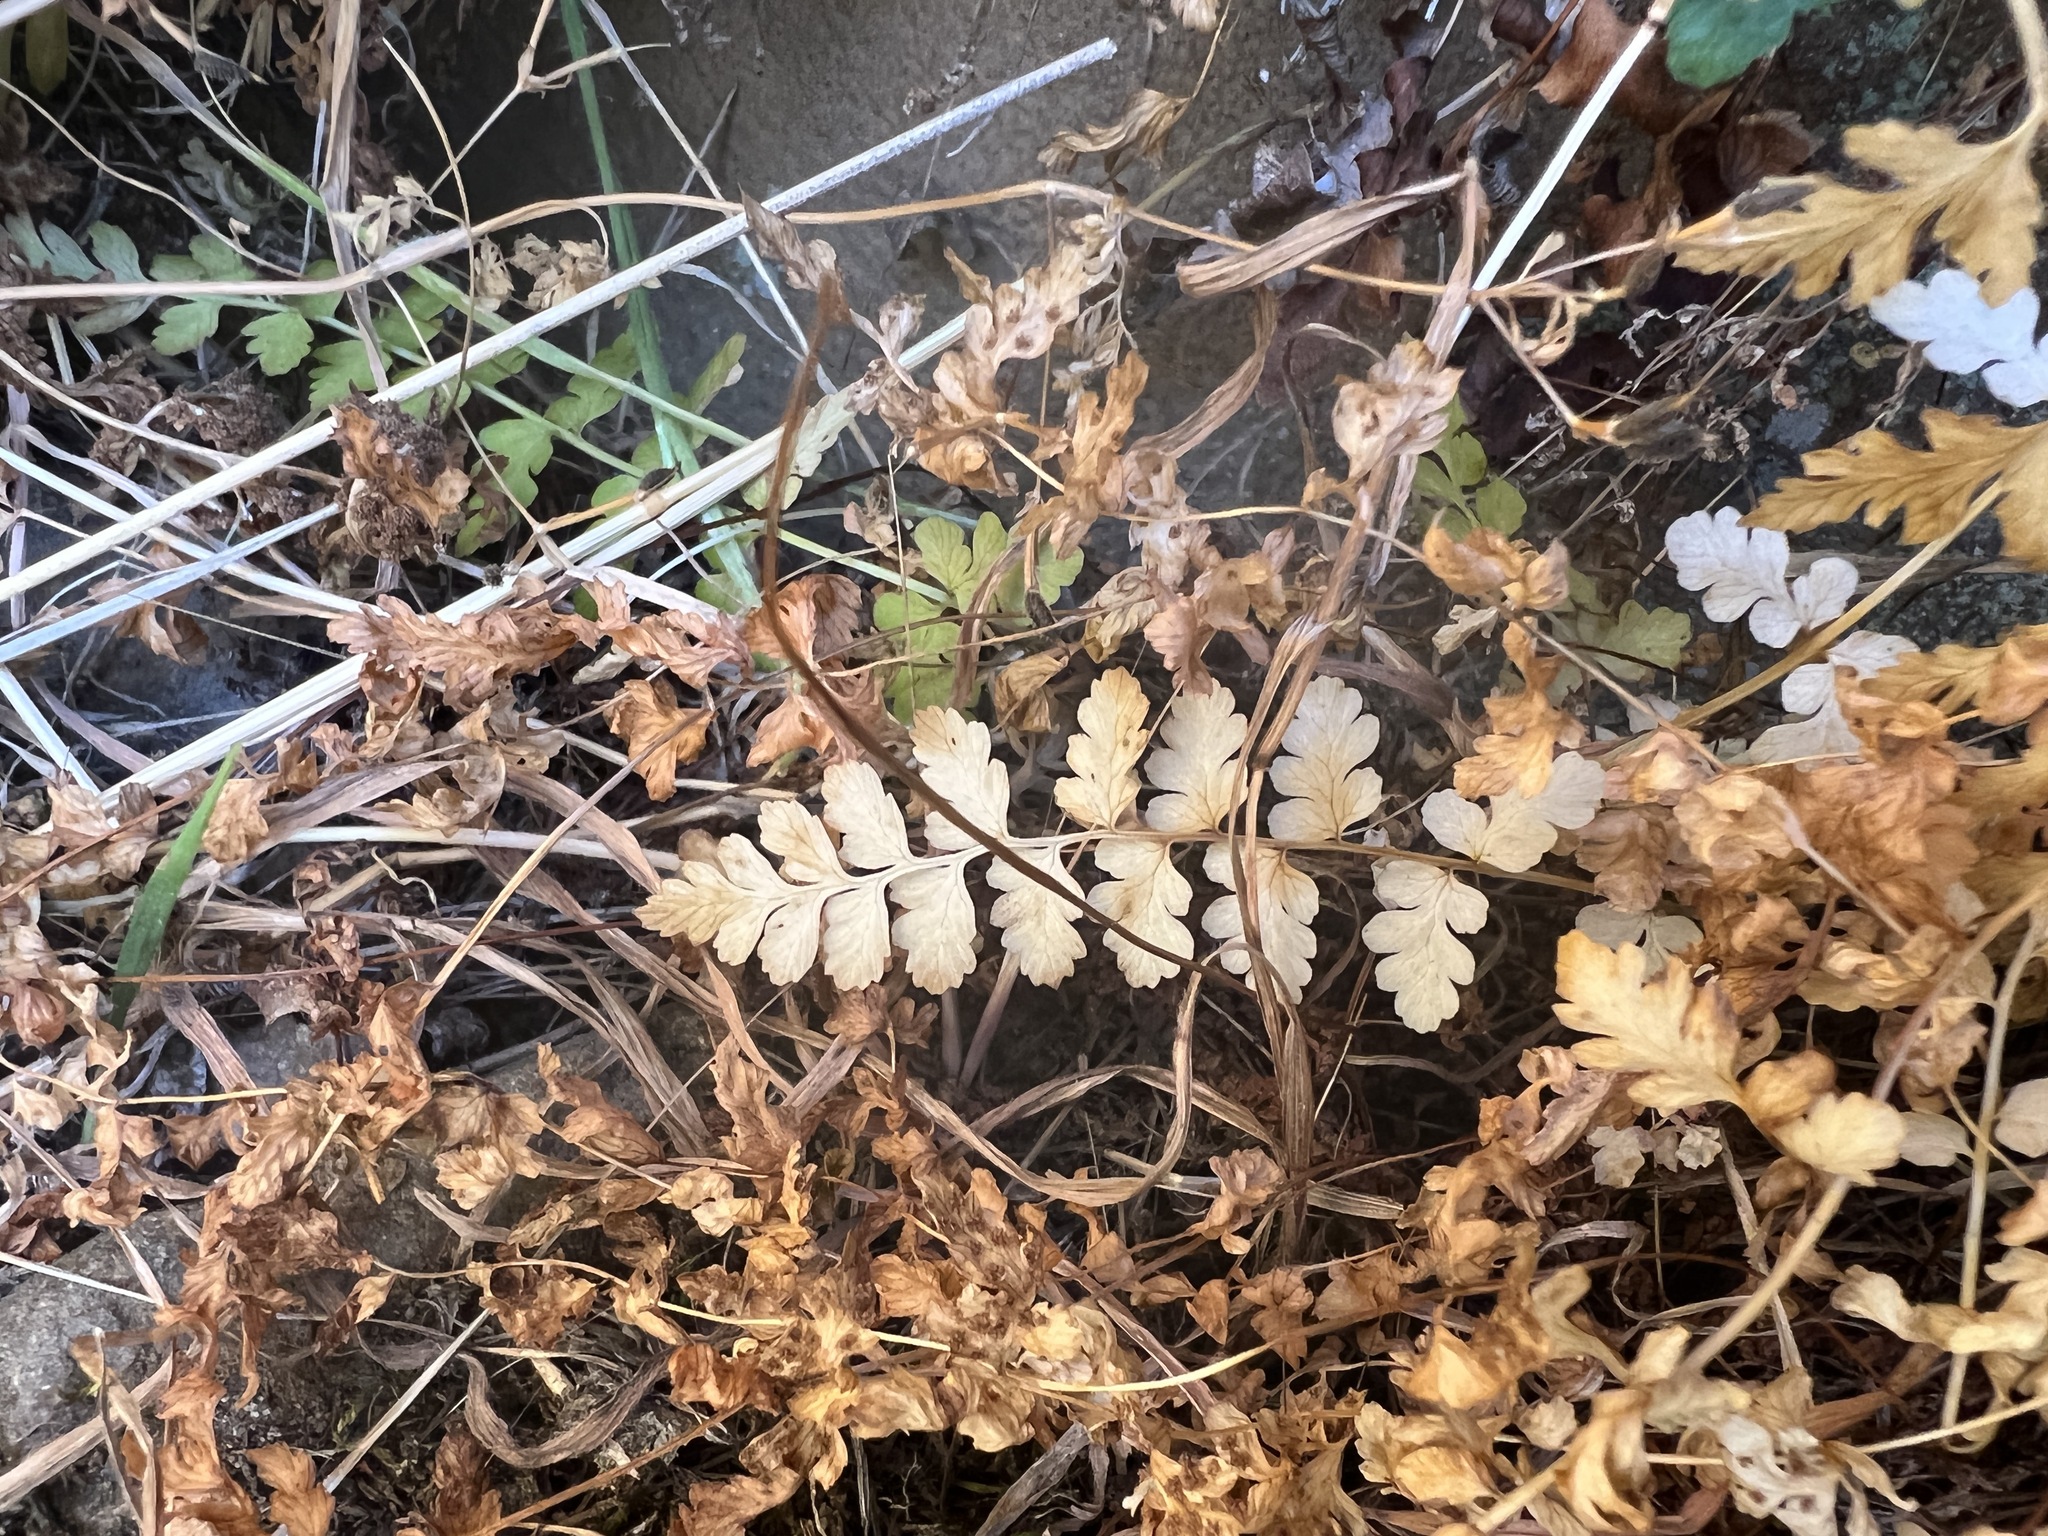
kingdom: Plantae
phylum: Tracheophyta
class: Polypodiopsida
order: Polypodiales
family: Cystopteridaceae
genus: Cystopteris
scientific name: Cystopteris fragilis
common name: Brittle bladder fern
